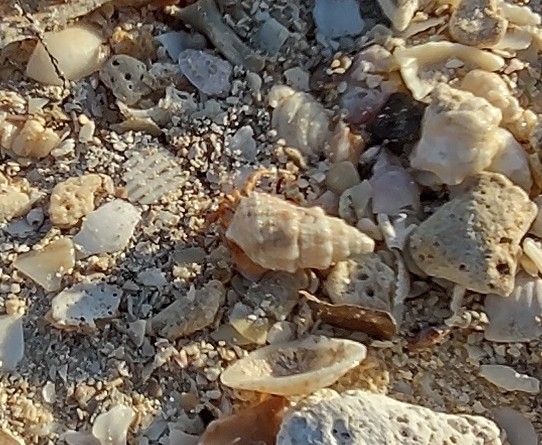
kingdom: Animalia
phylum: Arthropoda
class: Malacostraca
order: Decapoda
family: Coenobitidae
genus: Coenobita
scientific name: Coenobita clypeatus
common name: Caribbean hermit crab
